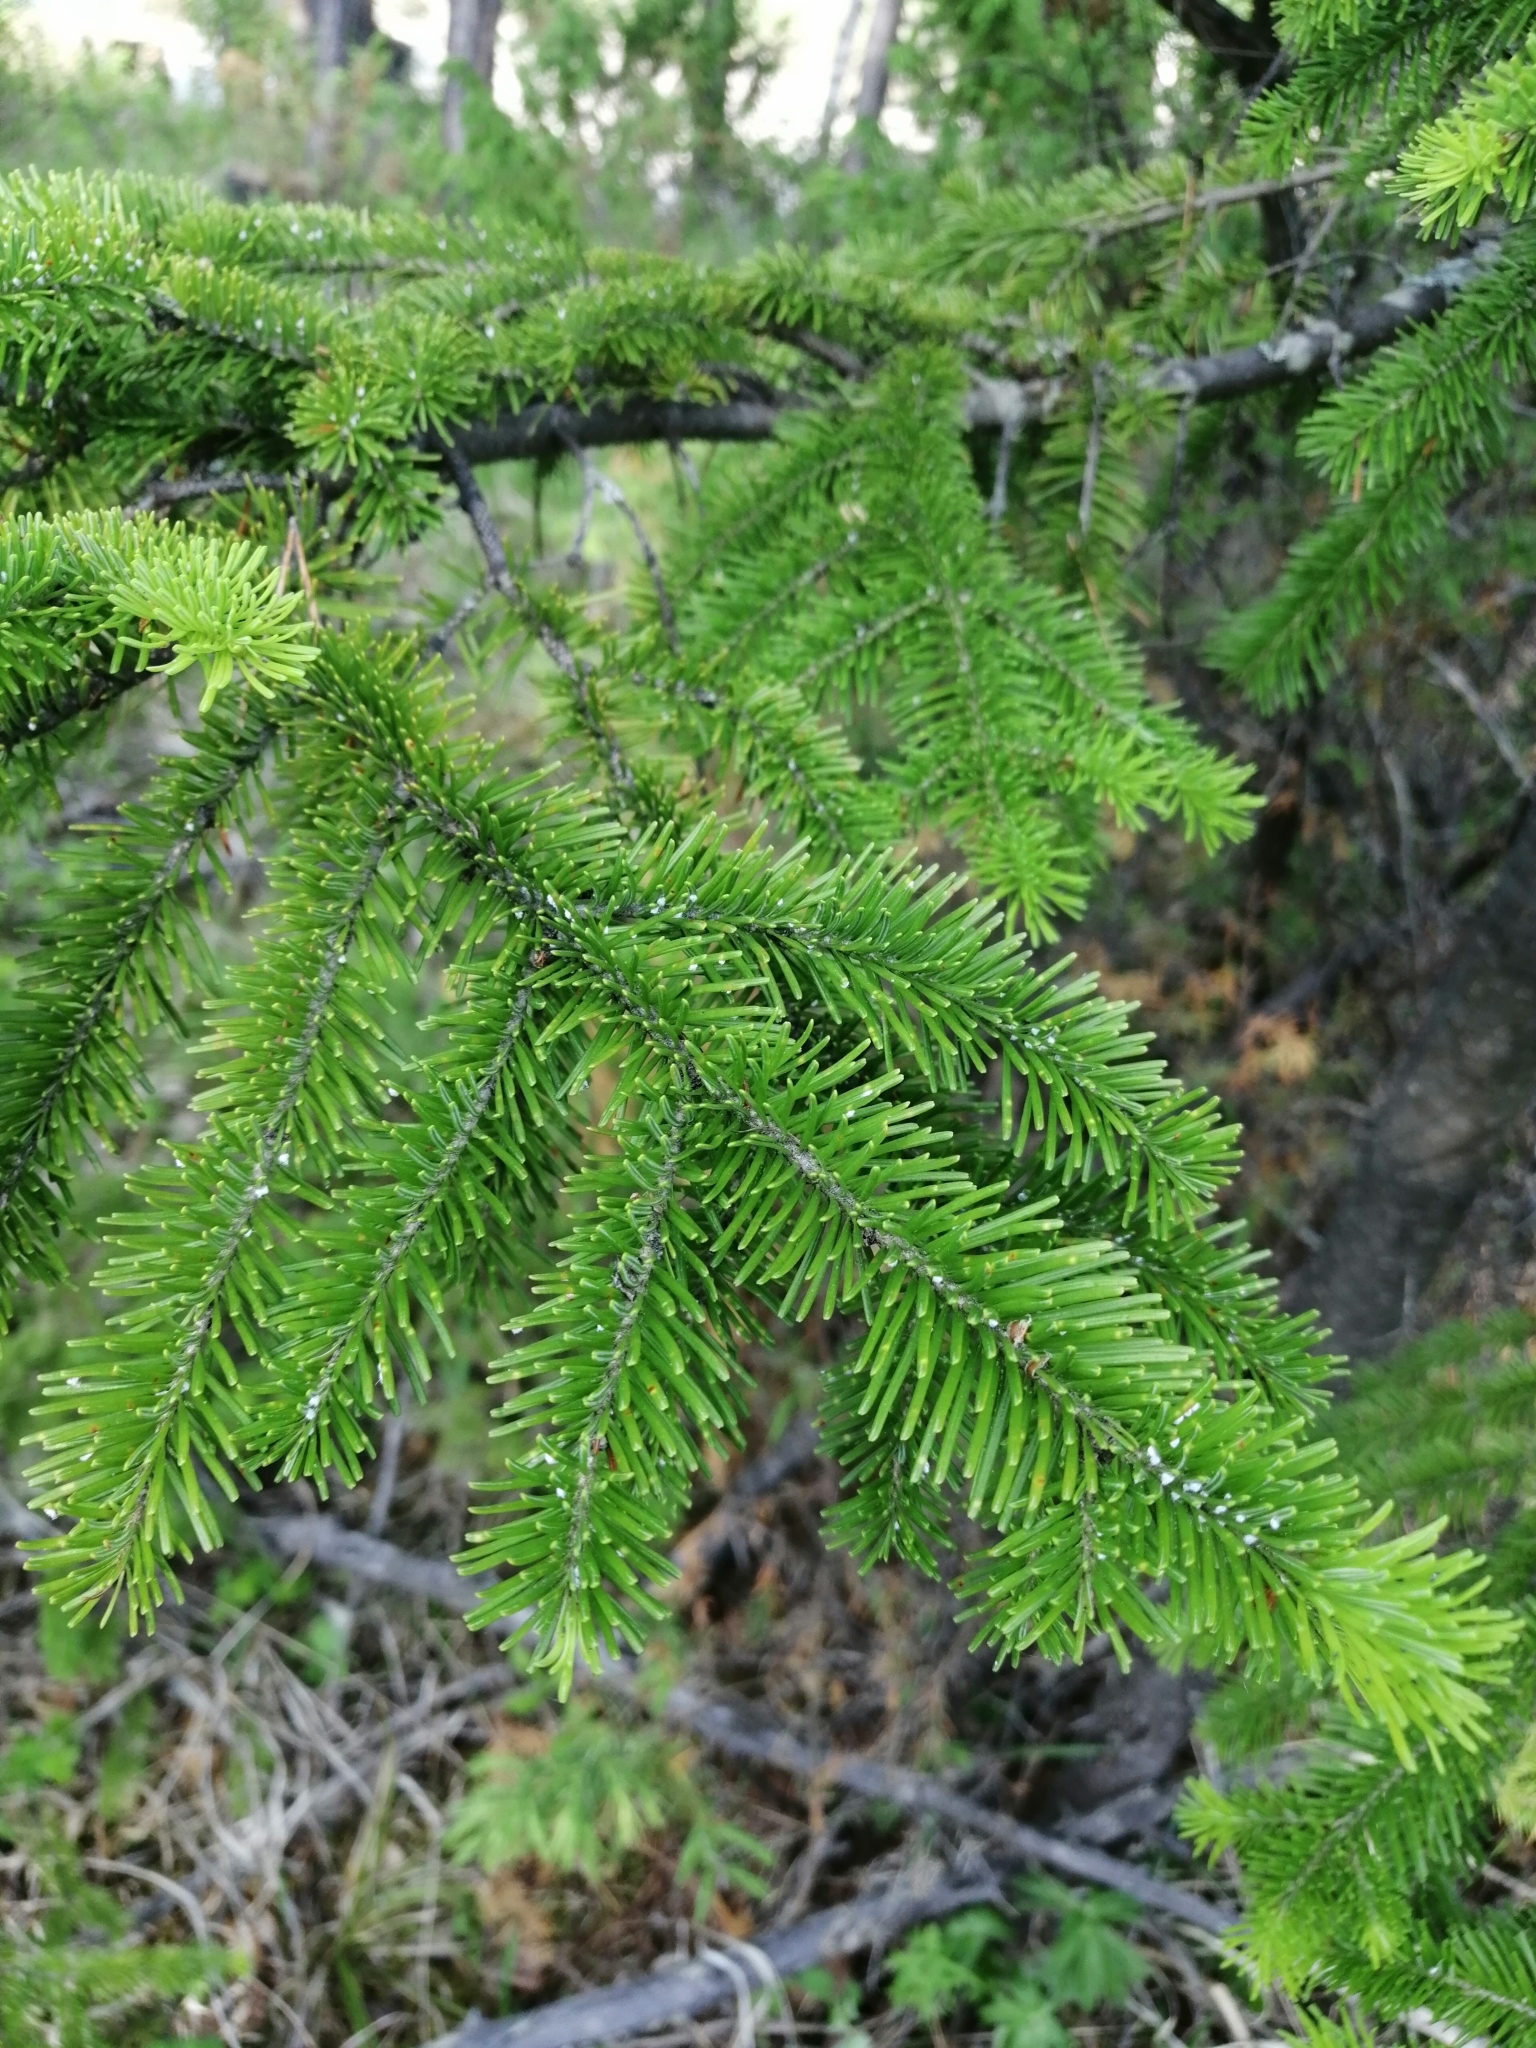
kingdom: Plantae
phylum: Tracheophyta
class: Pinopsida
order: Pinales
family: Pinaceae
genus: Abies
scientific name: Abies sibirica
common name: Siberian fir
